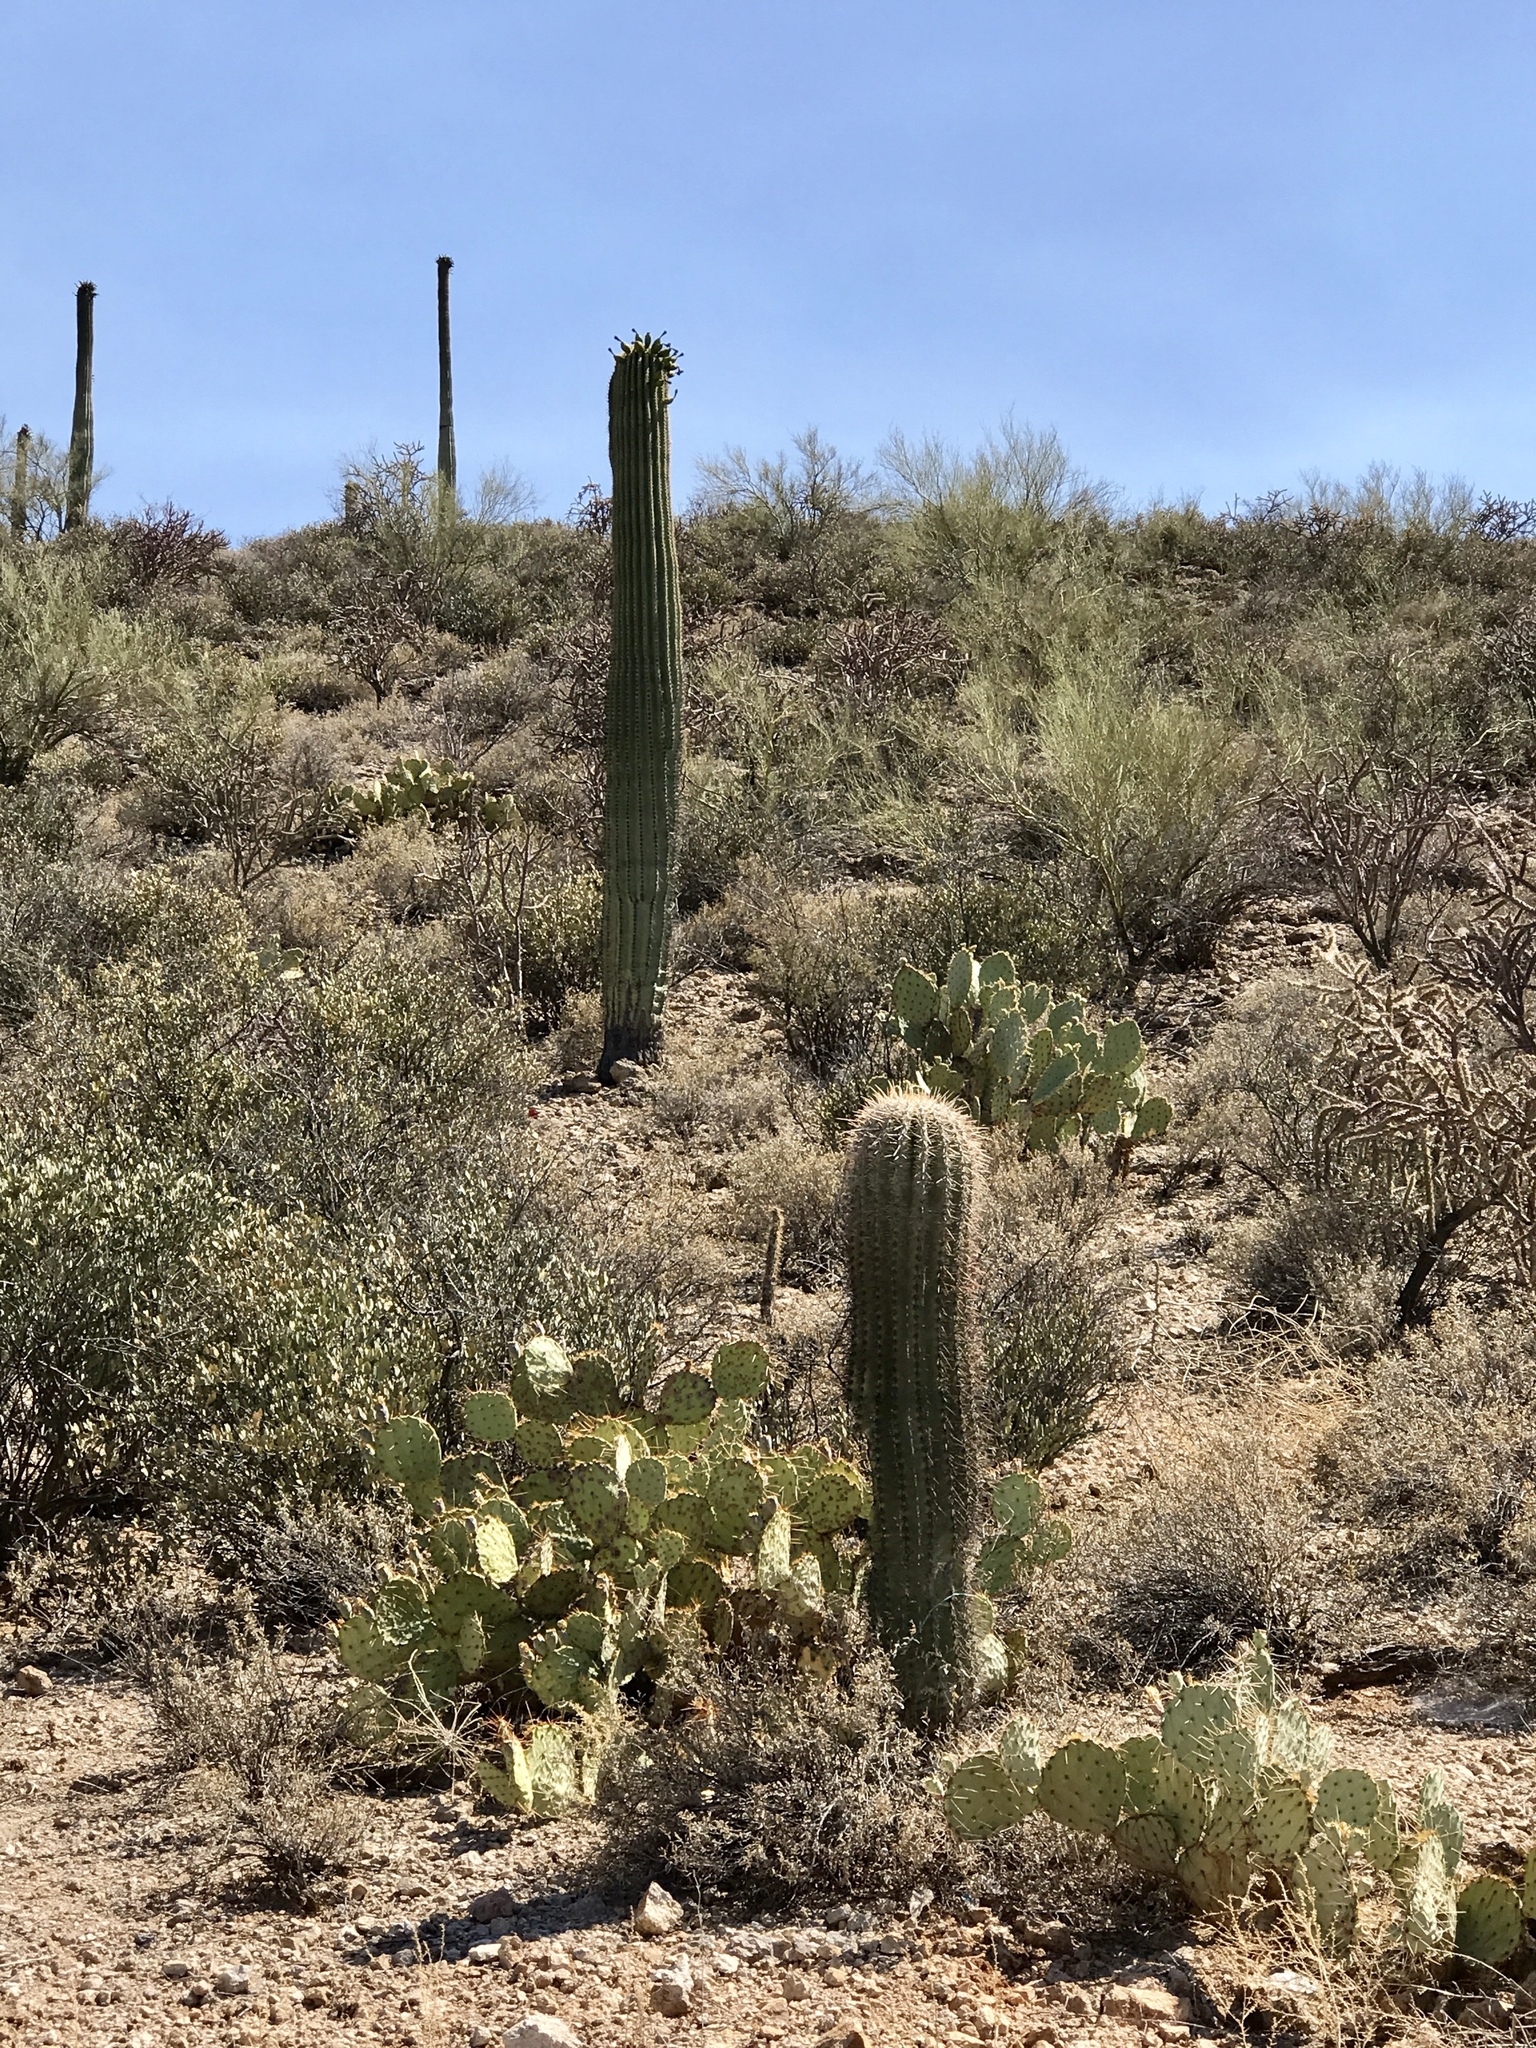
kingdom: Plantae
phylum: Tracheophyta
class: Magnoliopsida
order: Caryophyllales
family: Cactaceae
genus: Carnegiea
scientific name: Carnegiea gigantea
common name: Saguaro
